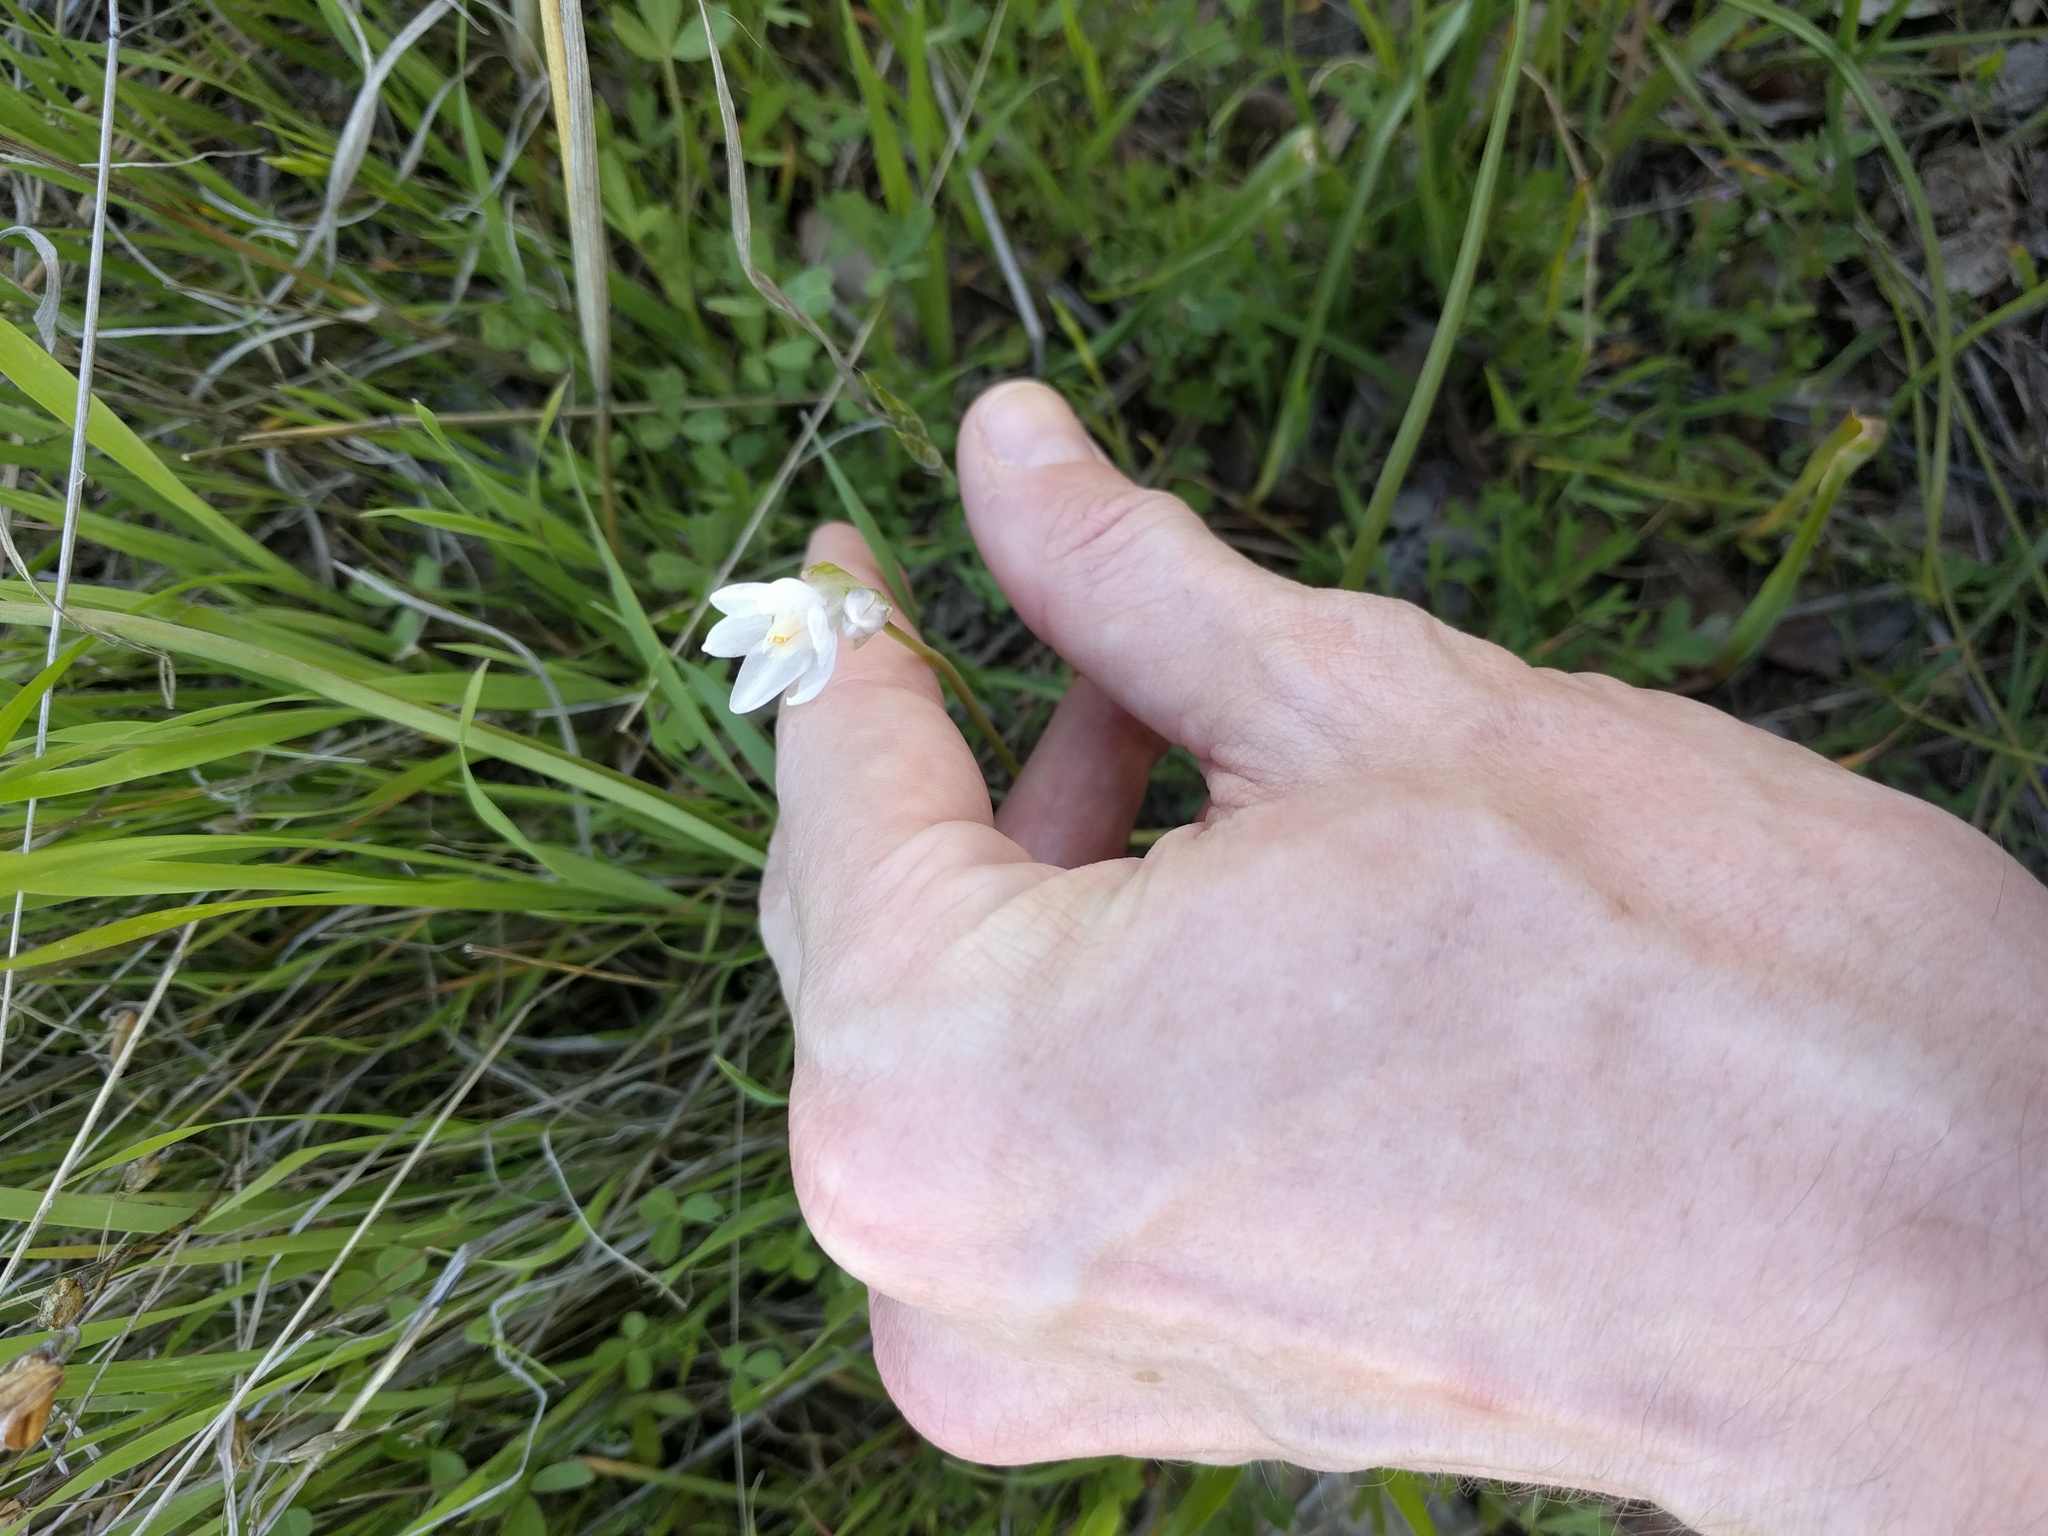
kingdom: Plantae
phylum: Tracheophyta
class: Liliopsida
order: Asparagales
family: Asparagaceae
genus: Dipterostemon
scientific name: Dipterostemon capitatus
